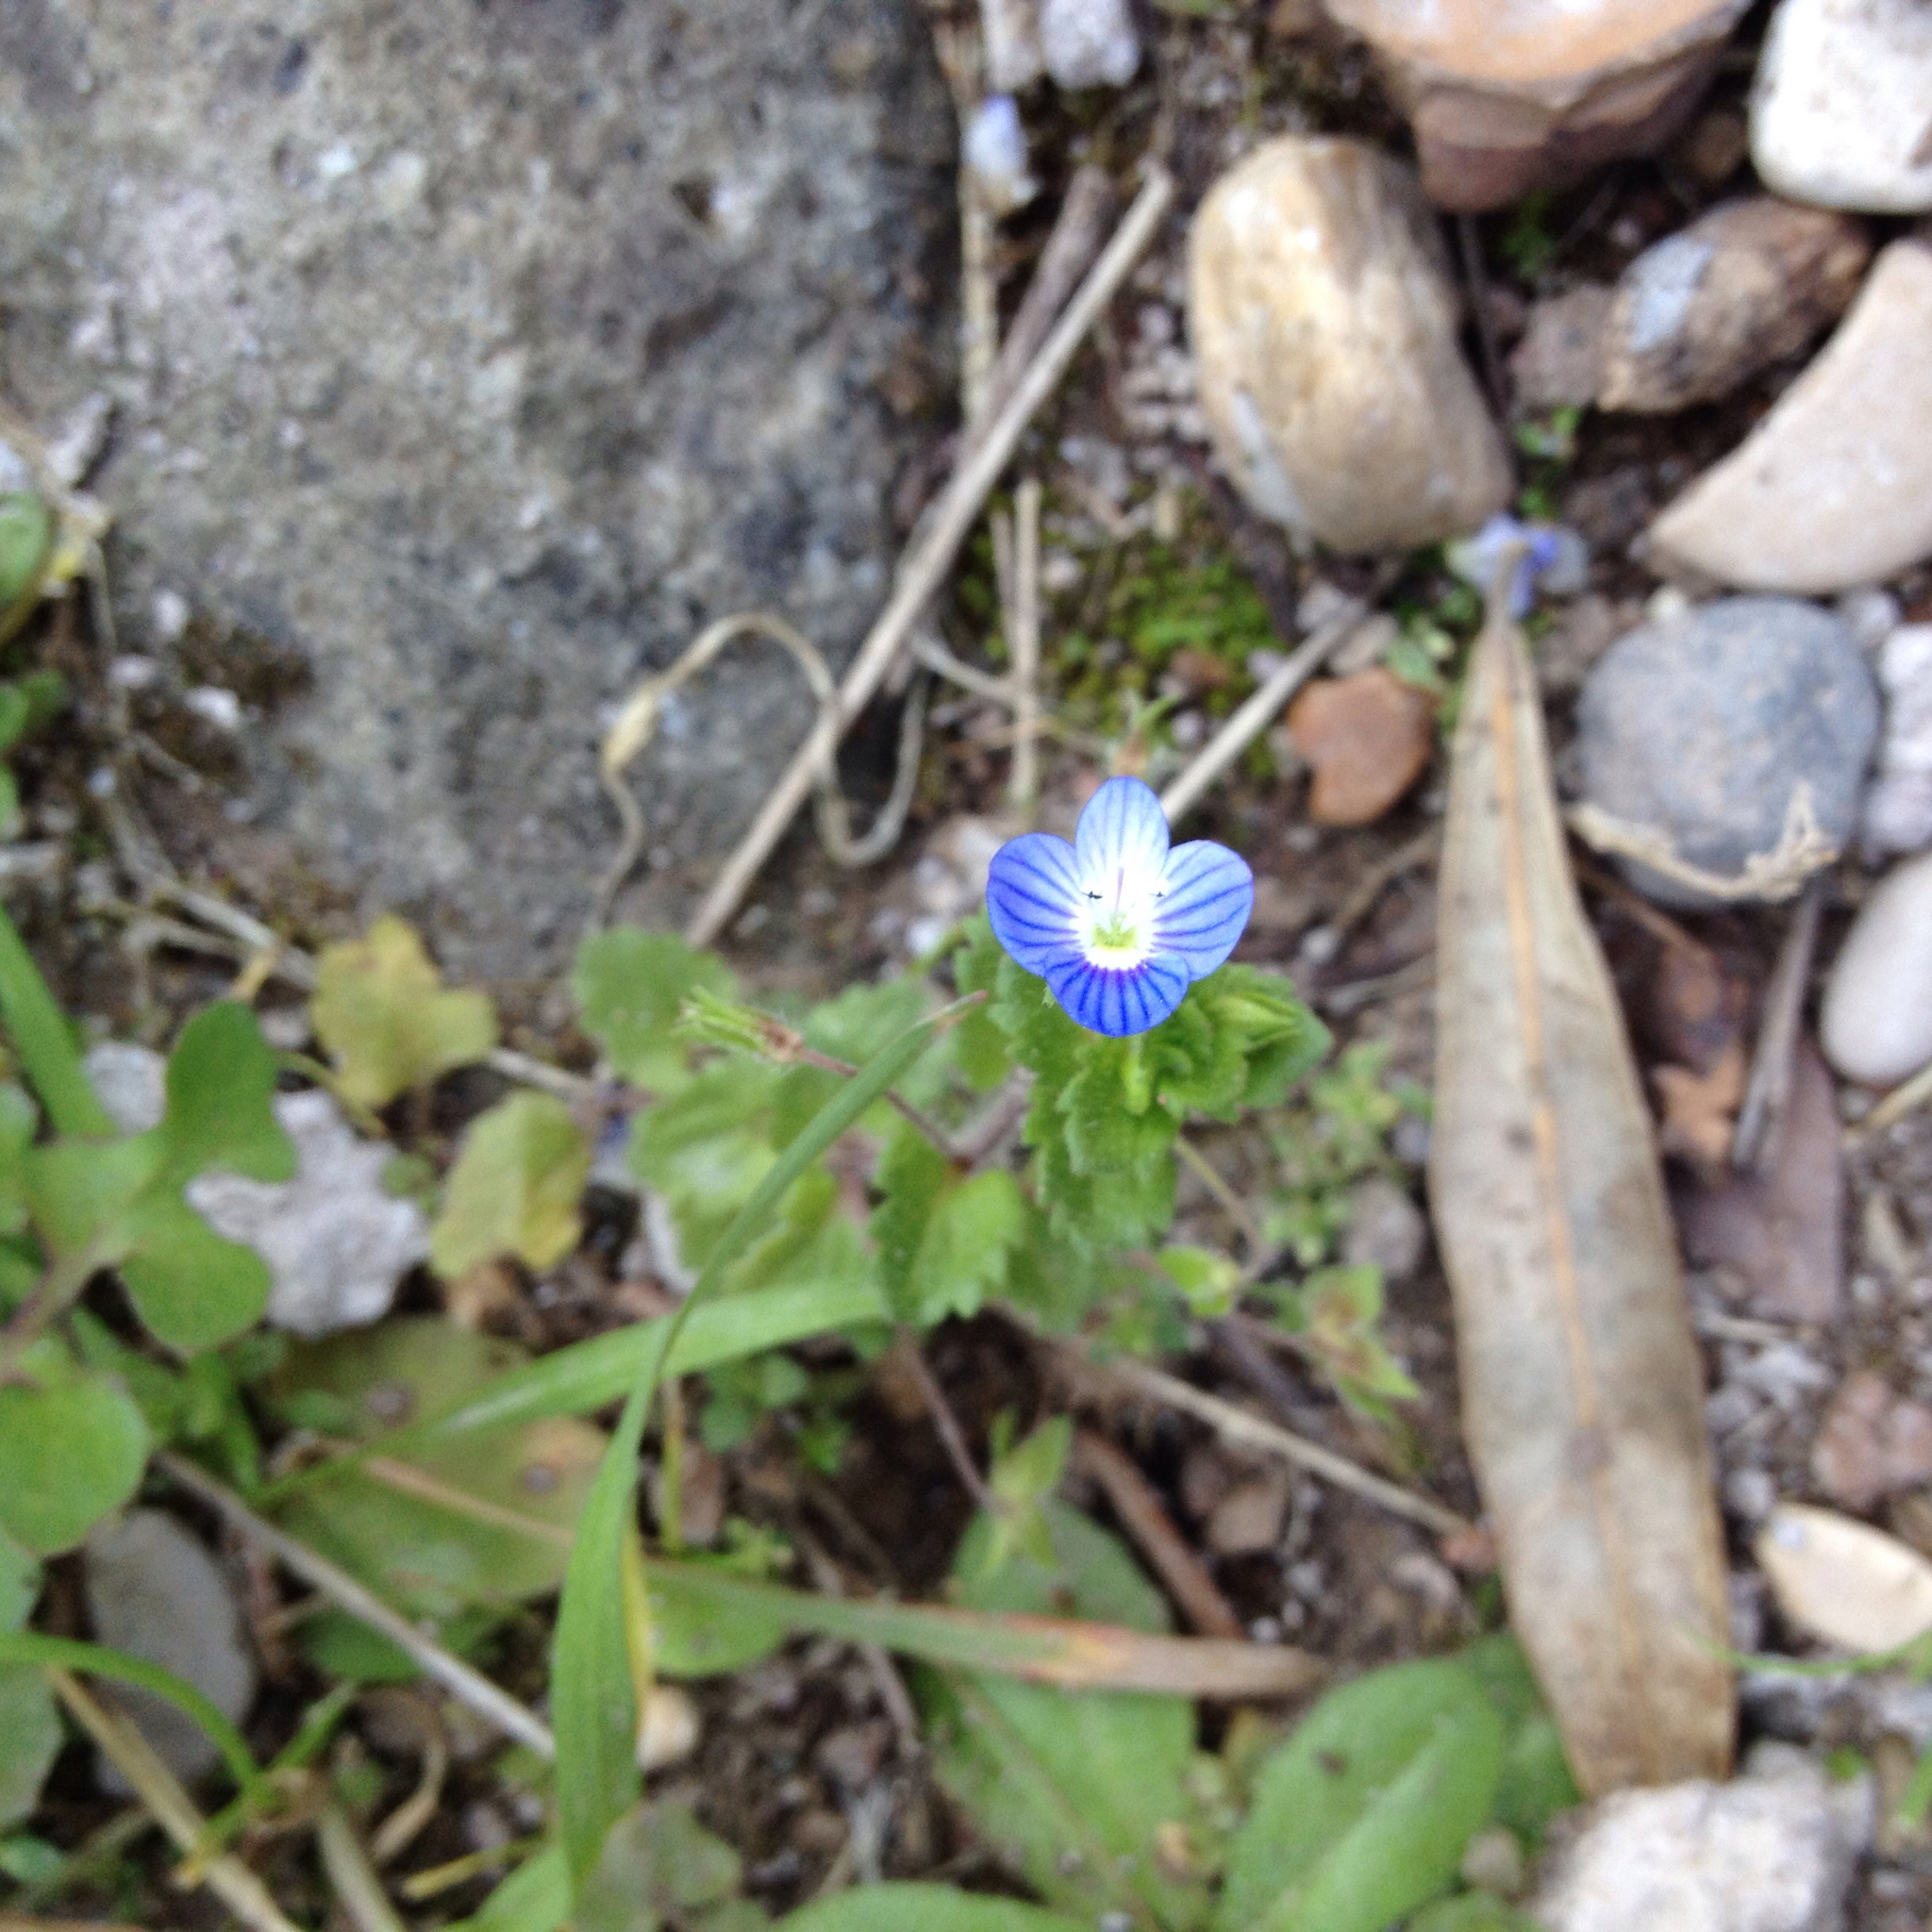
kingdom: Plantae
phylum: Tracheophyta
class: Magnoliopsida
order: Lamiales
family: Plantaginaceae
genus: Veronica
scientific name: Veronica persica
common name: Common field-speedwell
